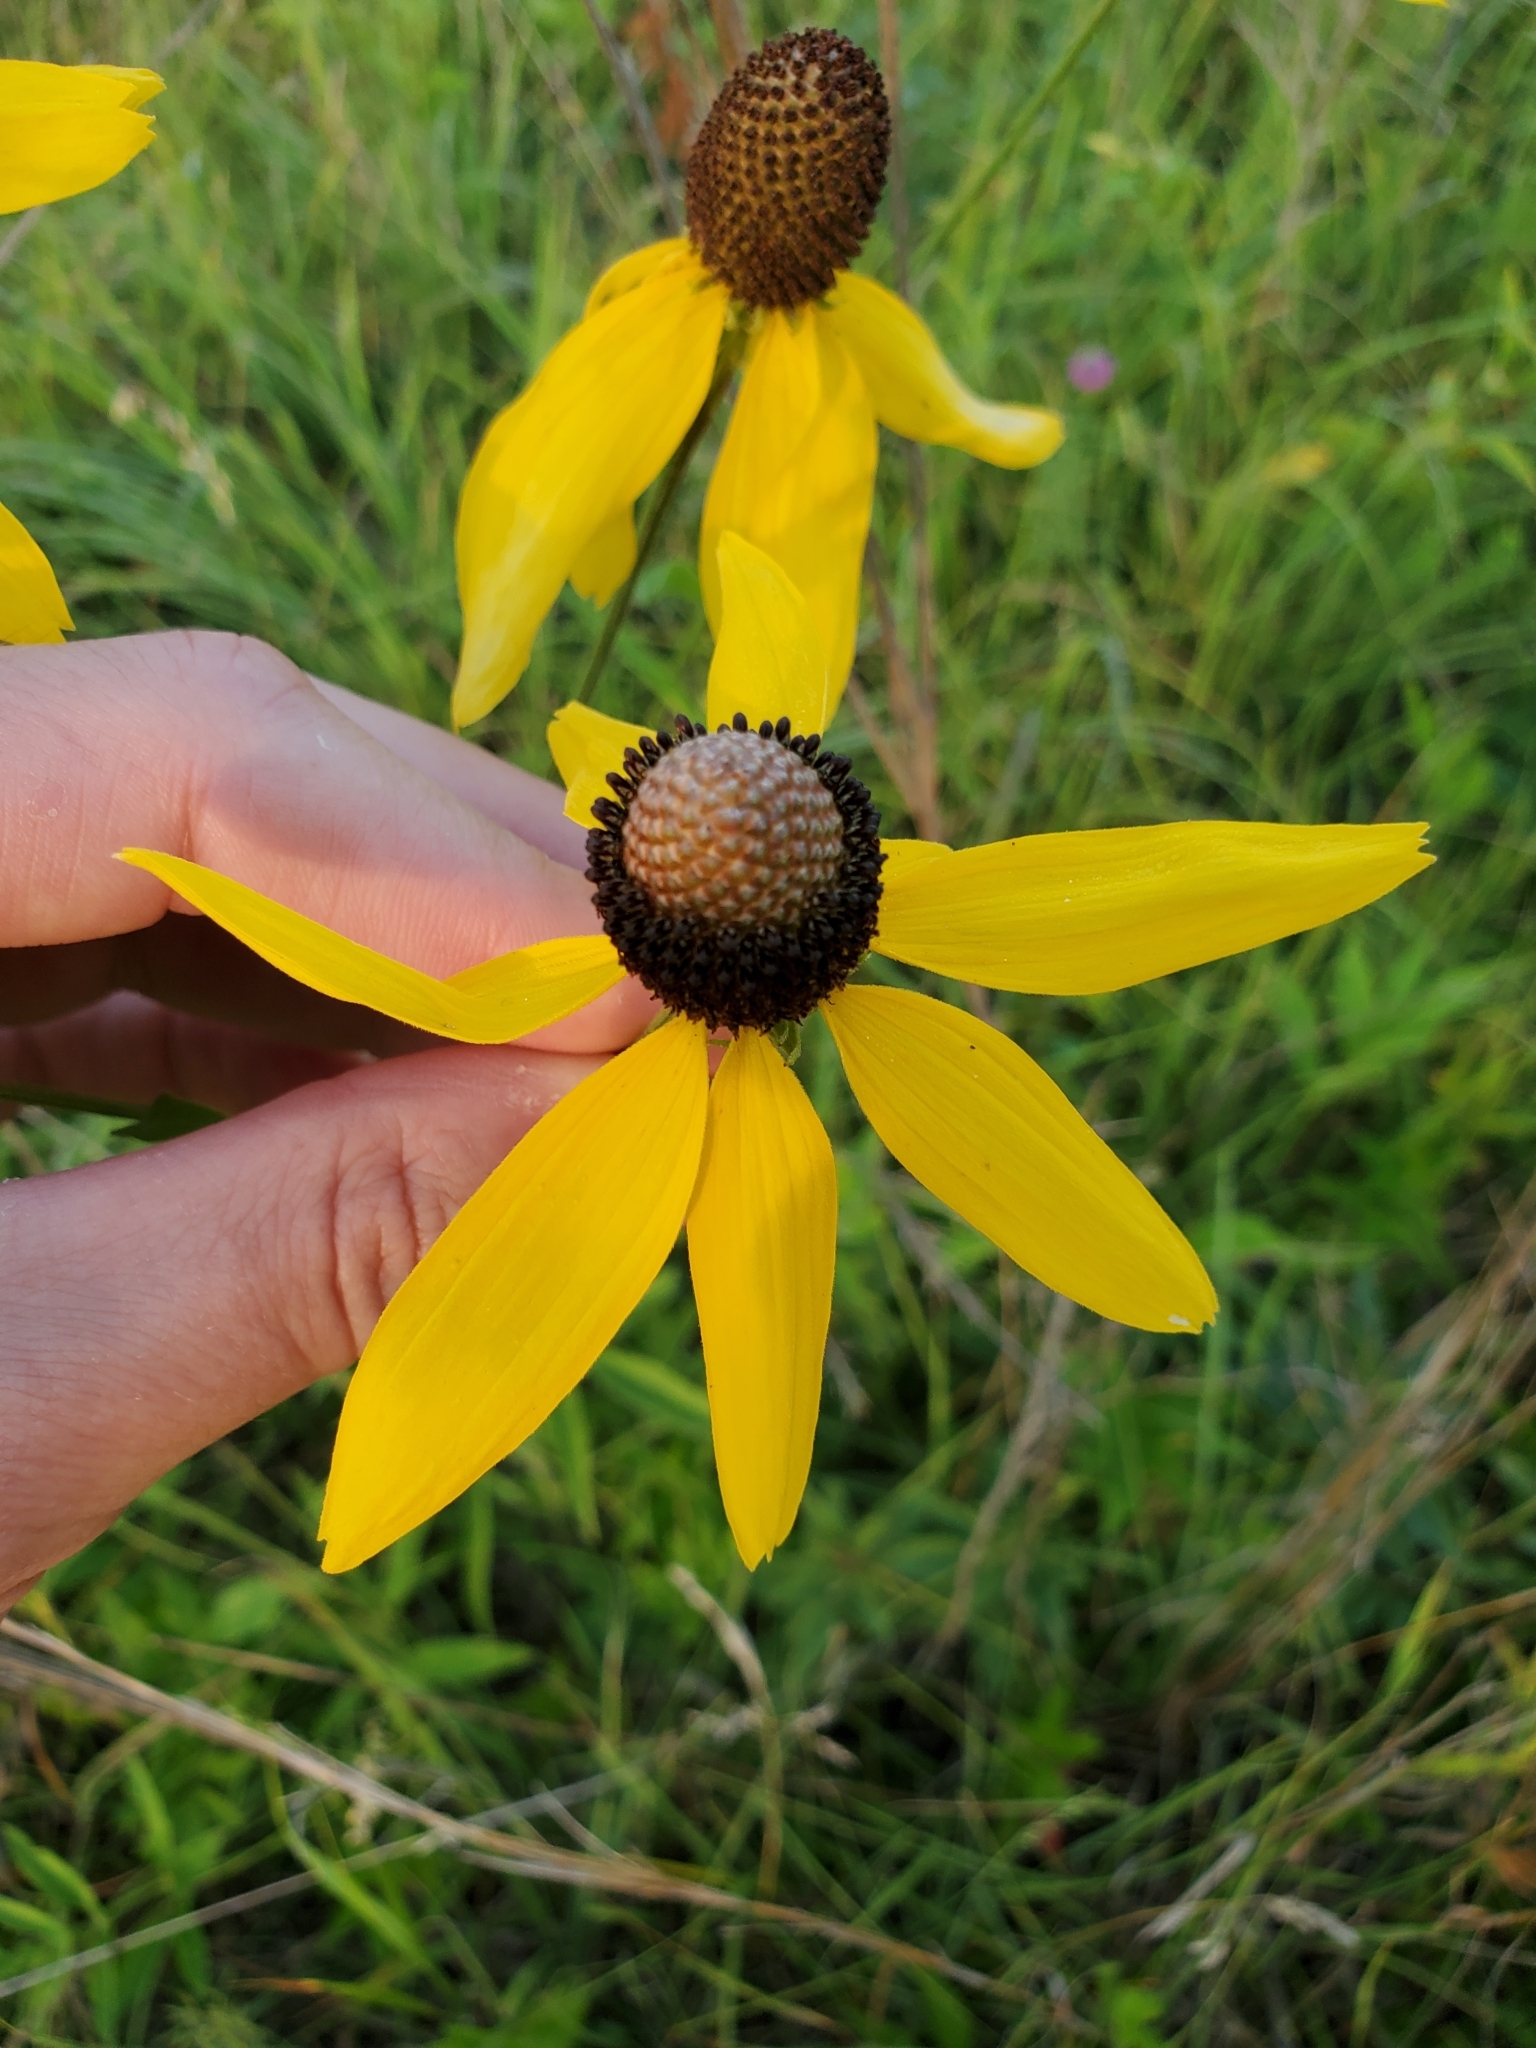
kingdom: Plantae
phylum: Tracheophyta
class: Magnoliopsida
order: Asterales
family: Asteraceae
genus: Ratibida
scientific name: Ratibida pinnata
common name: Drooping prairie-coneflower
